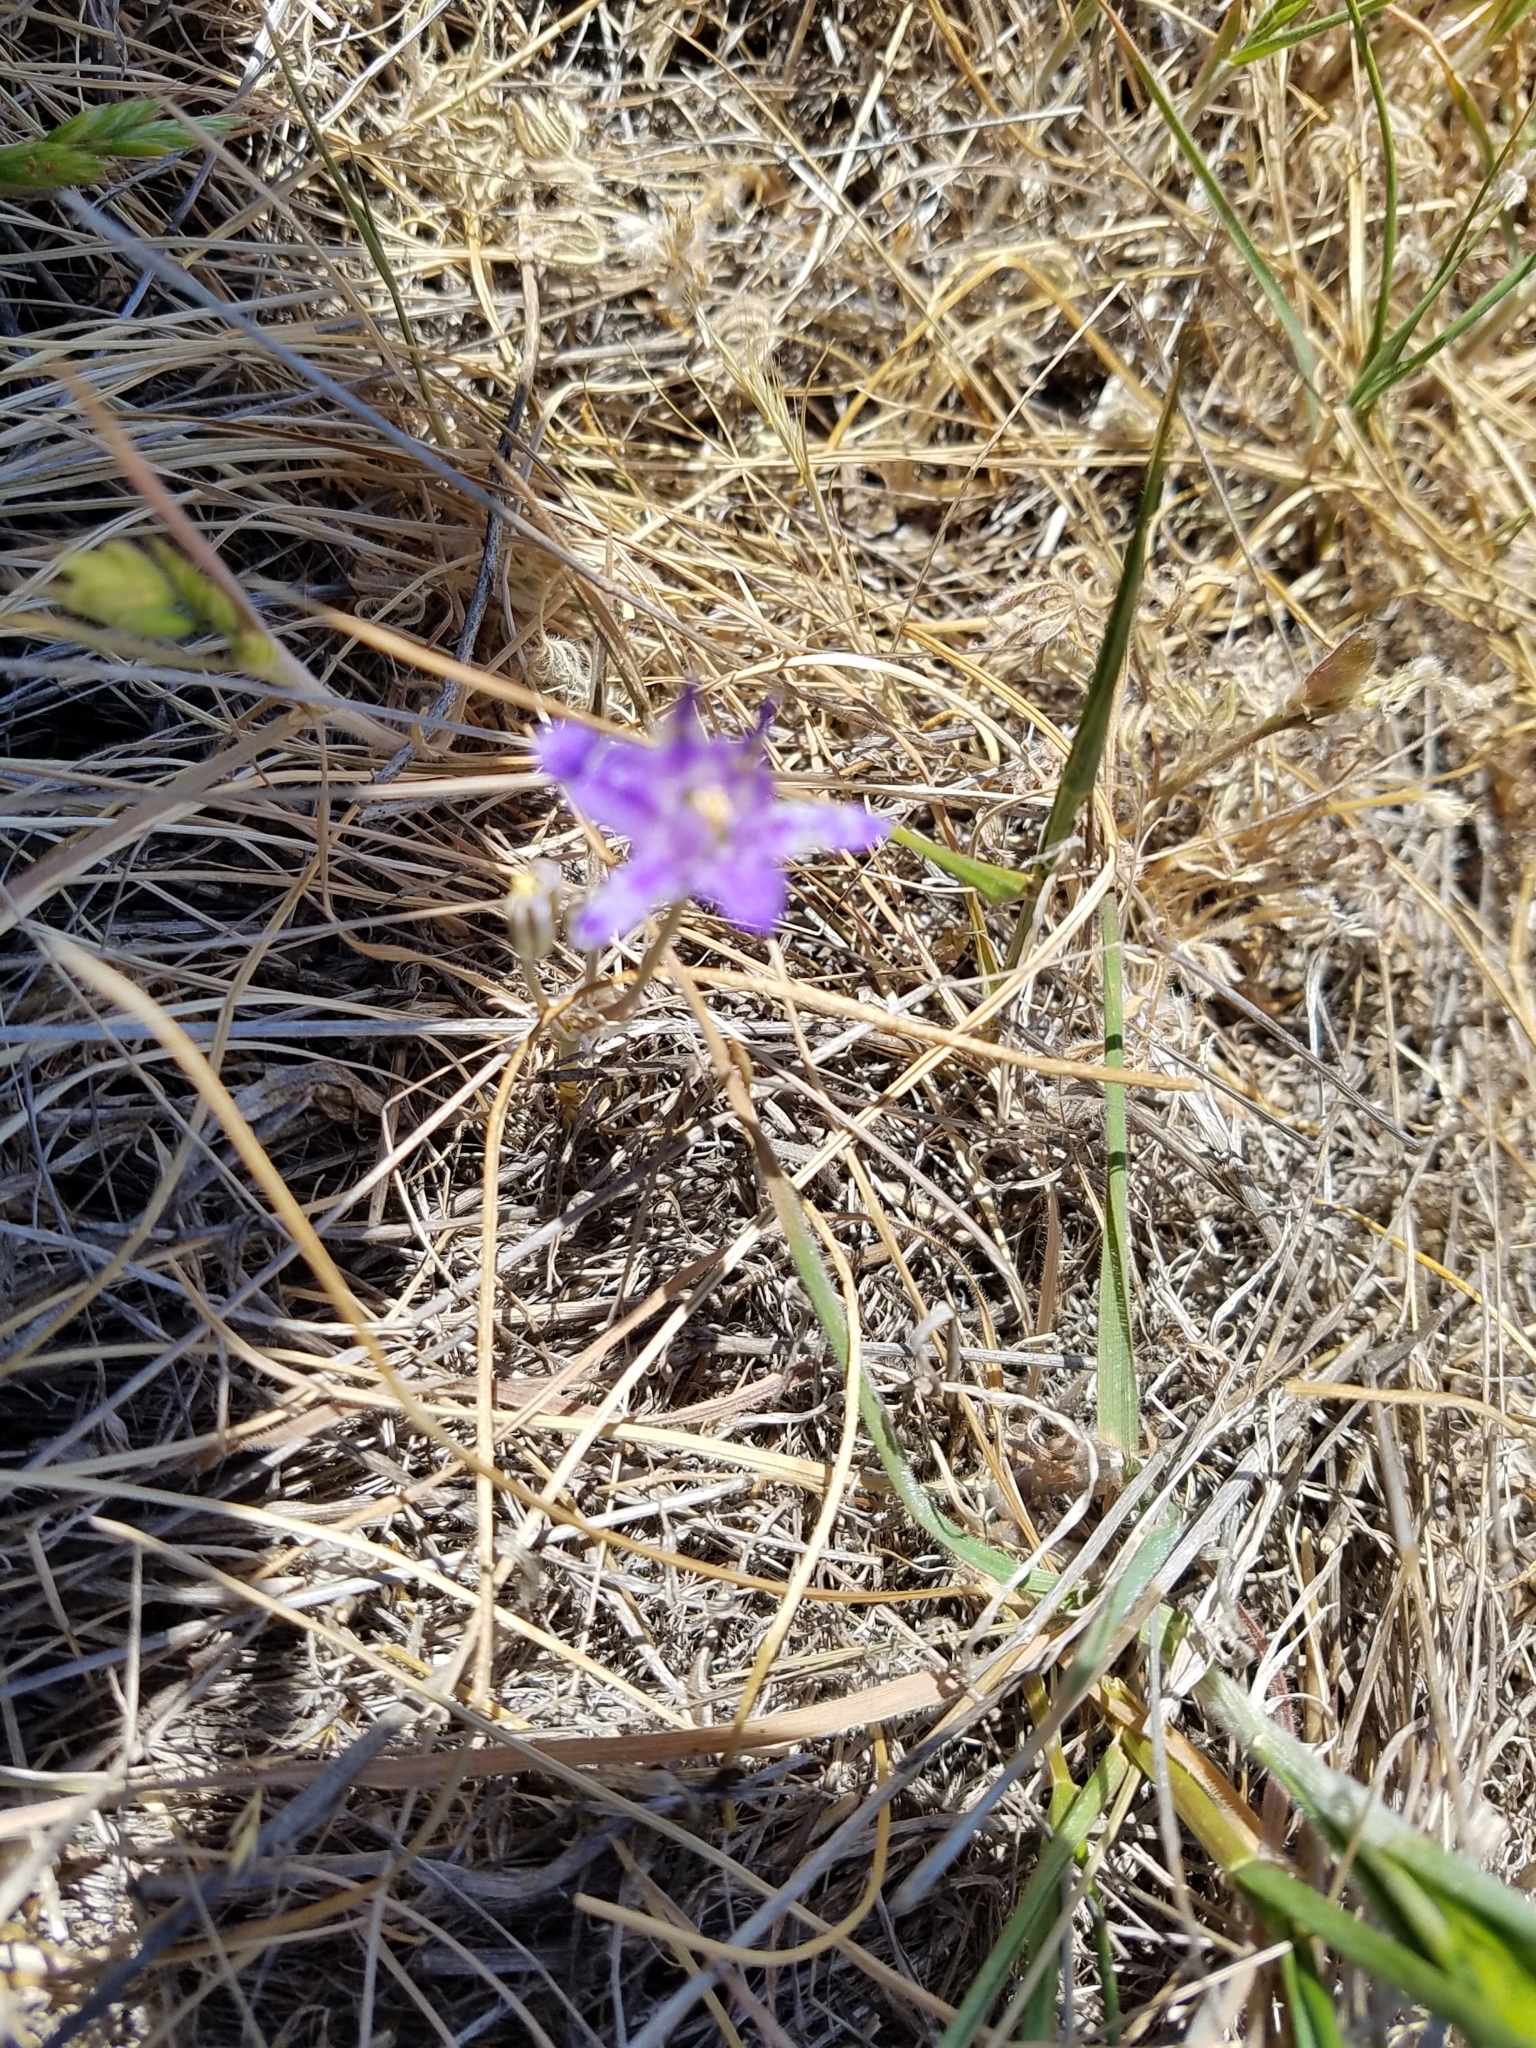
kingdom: Plantae
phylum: Tracheophyta
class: Liliopsida
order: Asparagales
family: Asparagaceae
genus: Brodiaea
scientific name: Brodiaea terrestris
